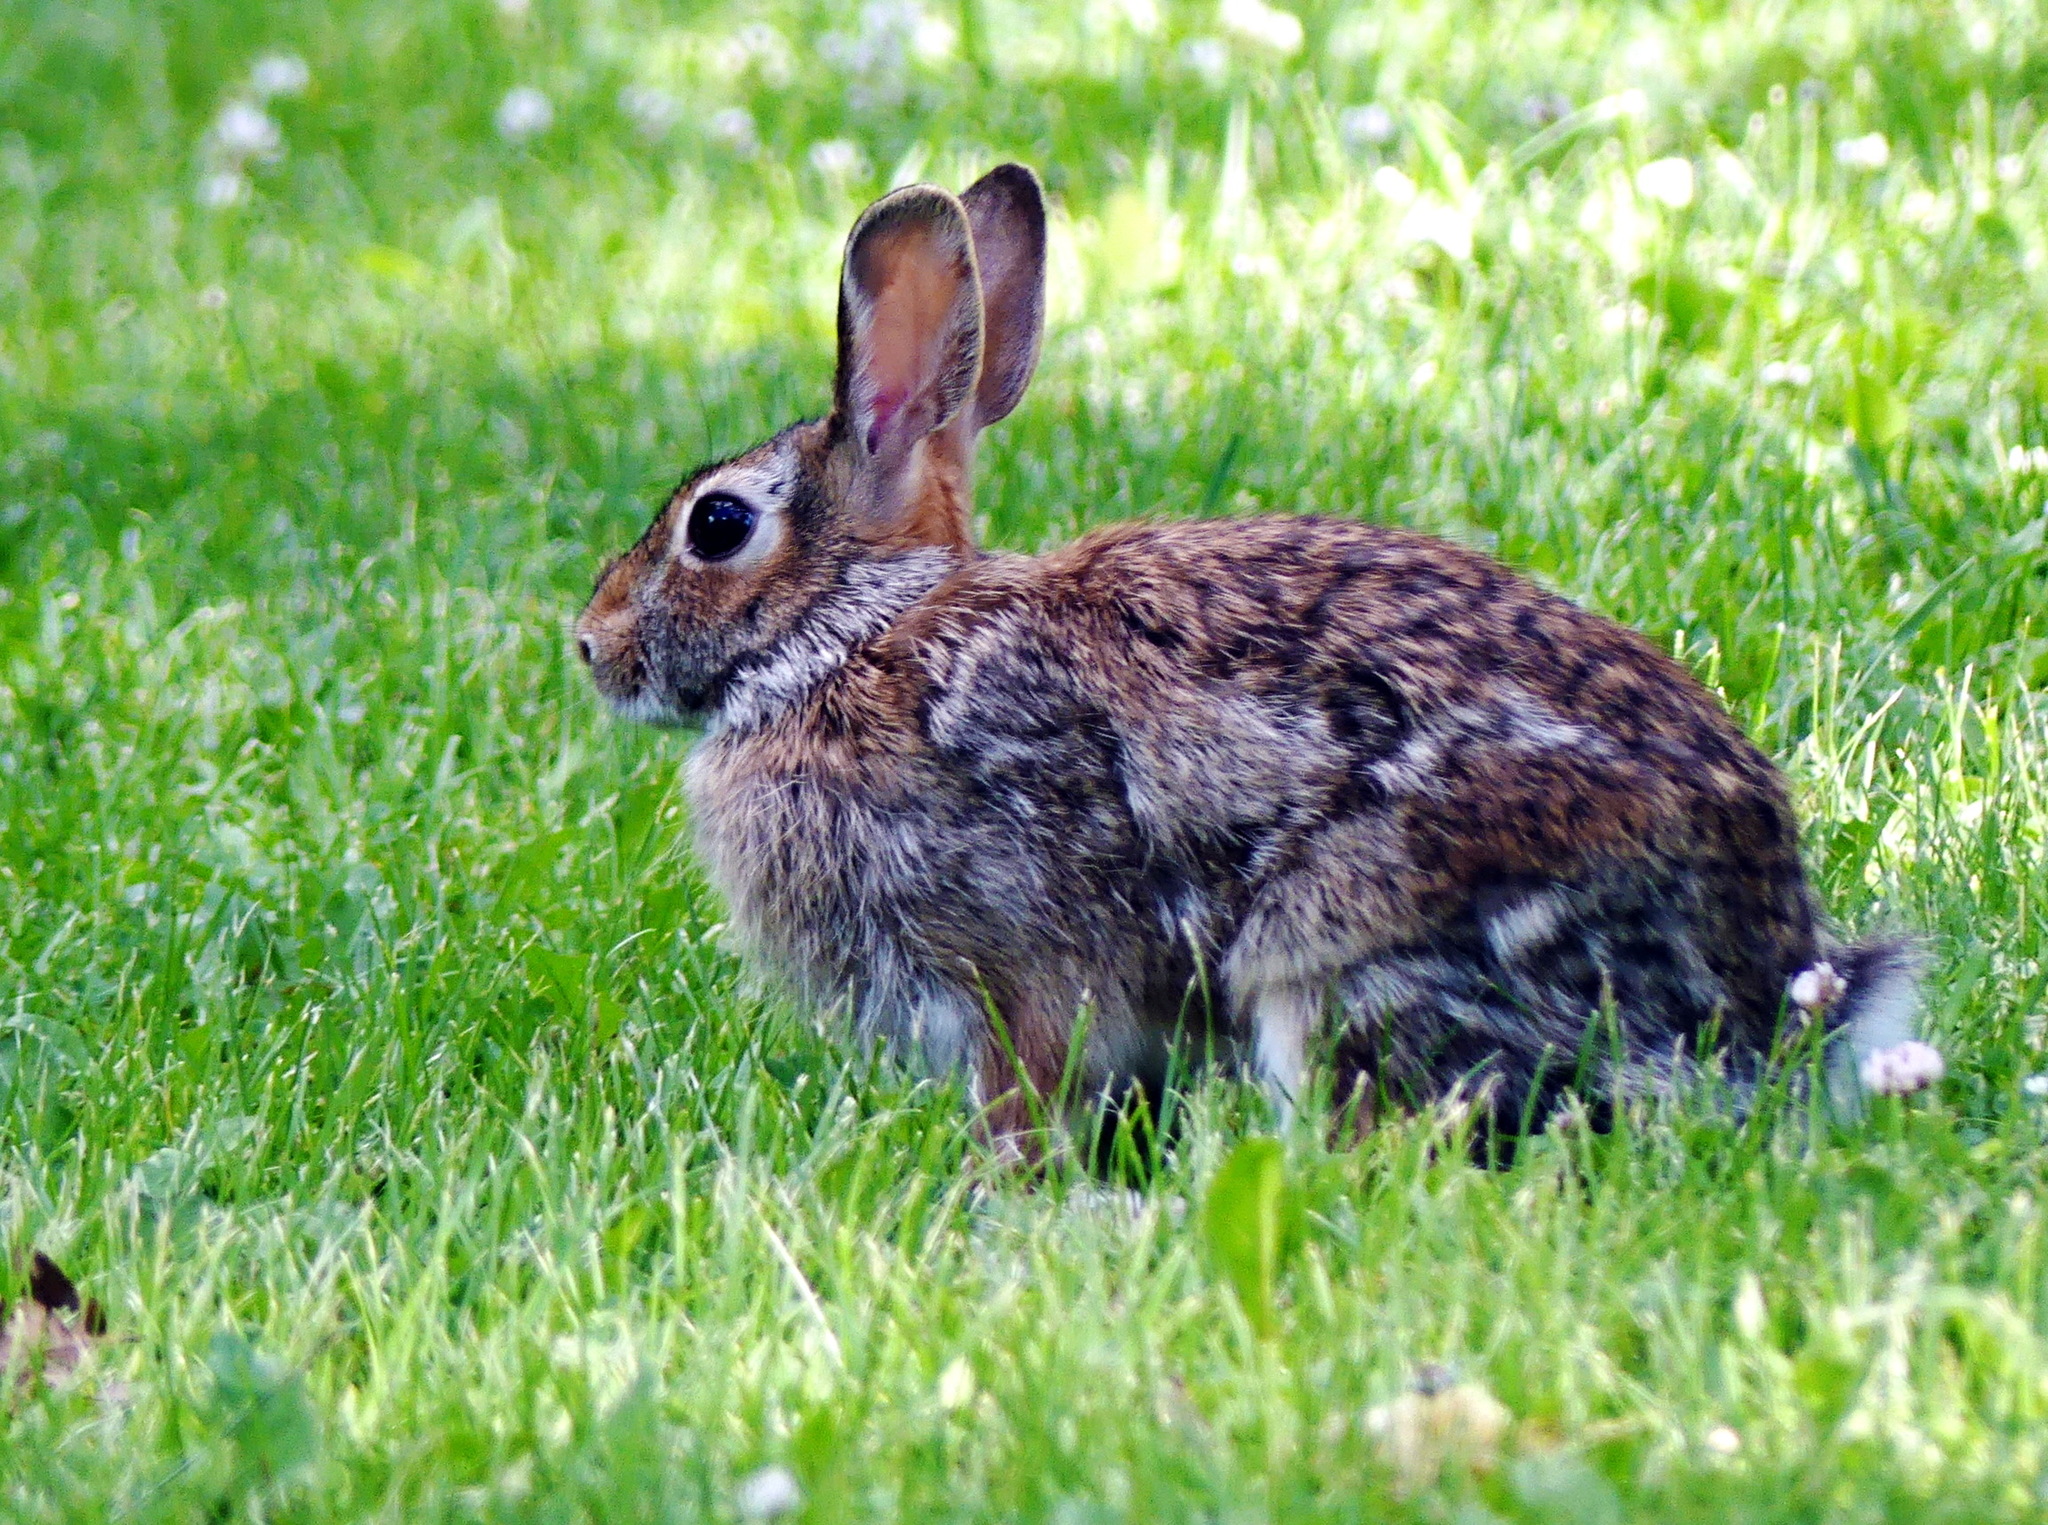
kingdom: Animalia
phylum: Chordata
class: Mammalia
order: Lagomorpha
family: Leporidae
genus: Sylvilagus
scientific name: Sylvilagus floridanus
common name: Eastern cottontail
